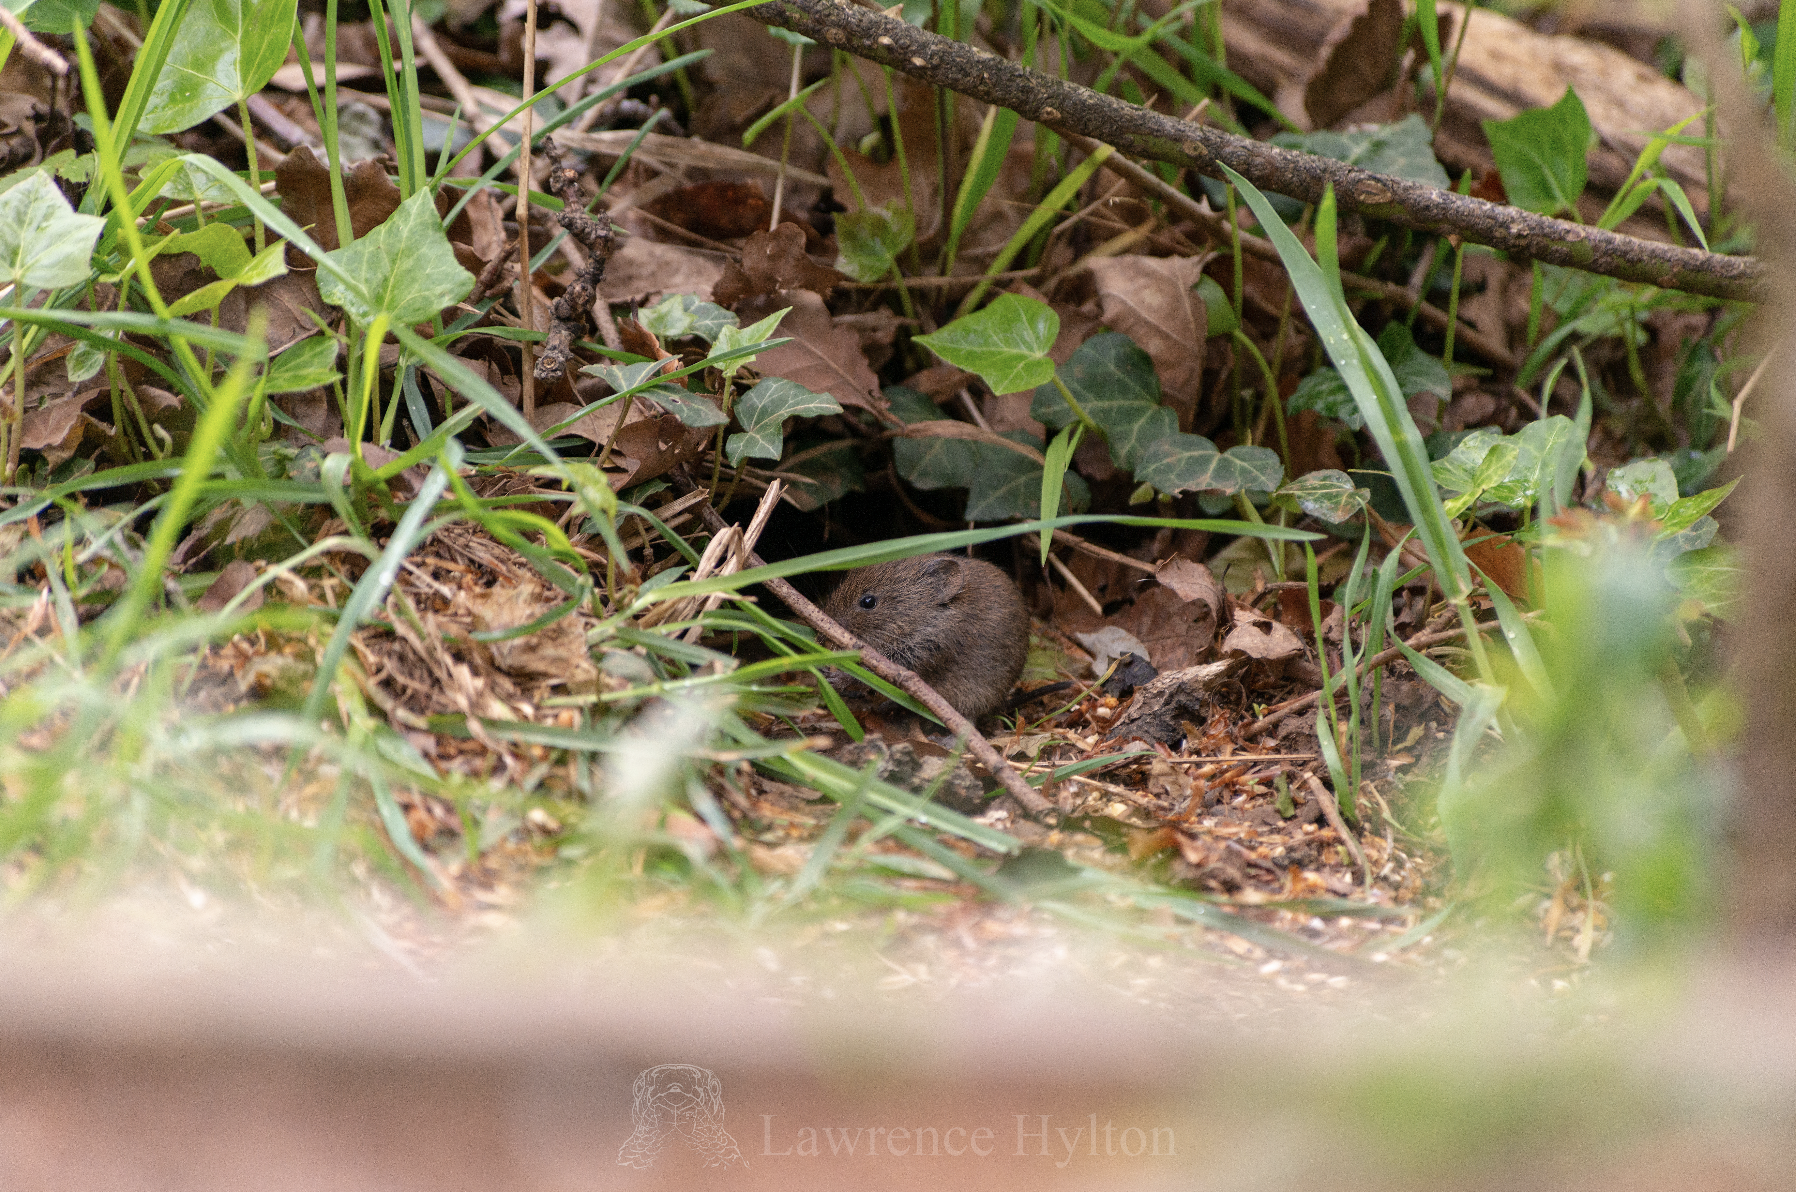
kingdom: Animalia
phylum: Chordata
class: Mammalia
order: Rodentia
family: Cricetidae
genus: Myodes
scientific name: Myodes glareolus
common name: Bank vole
